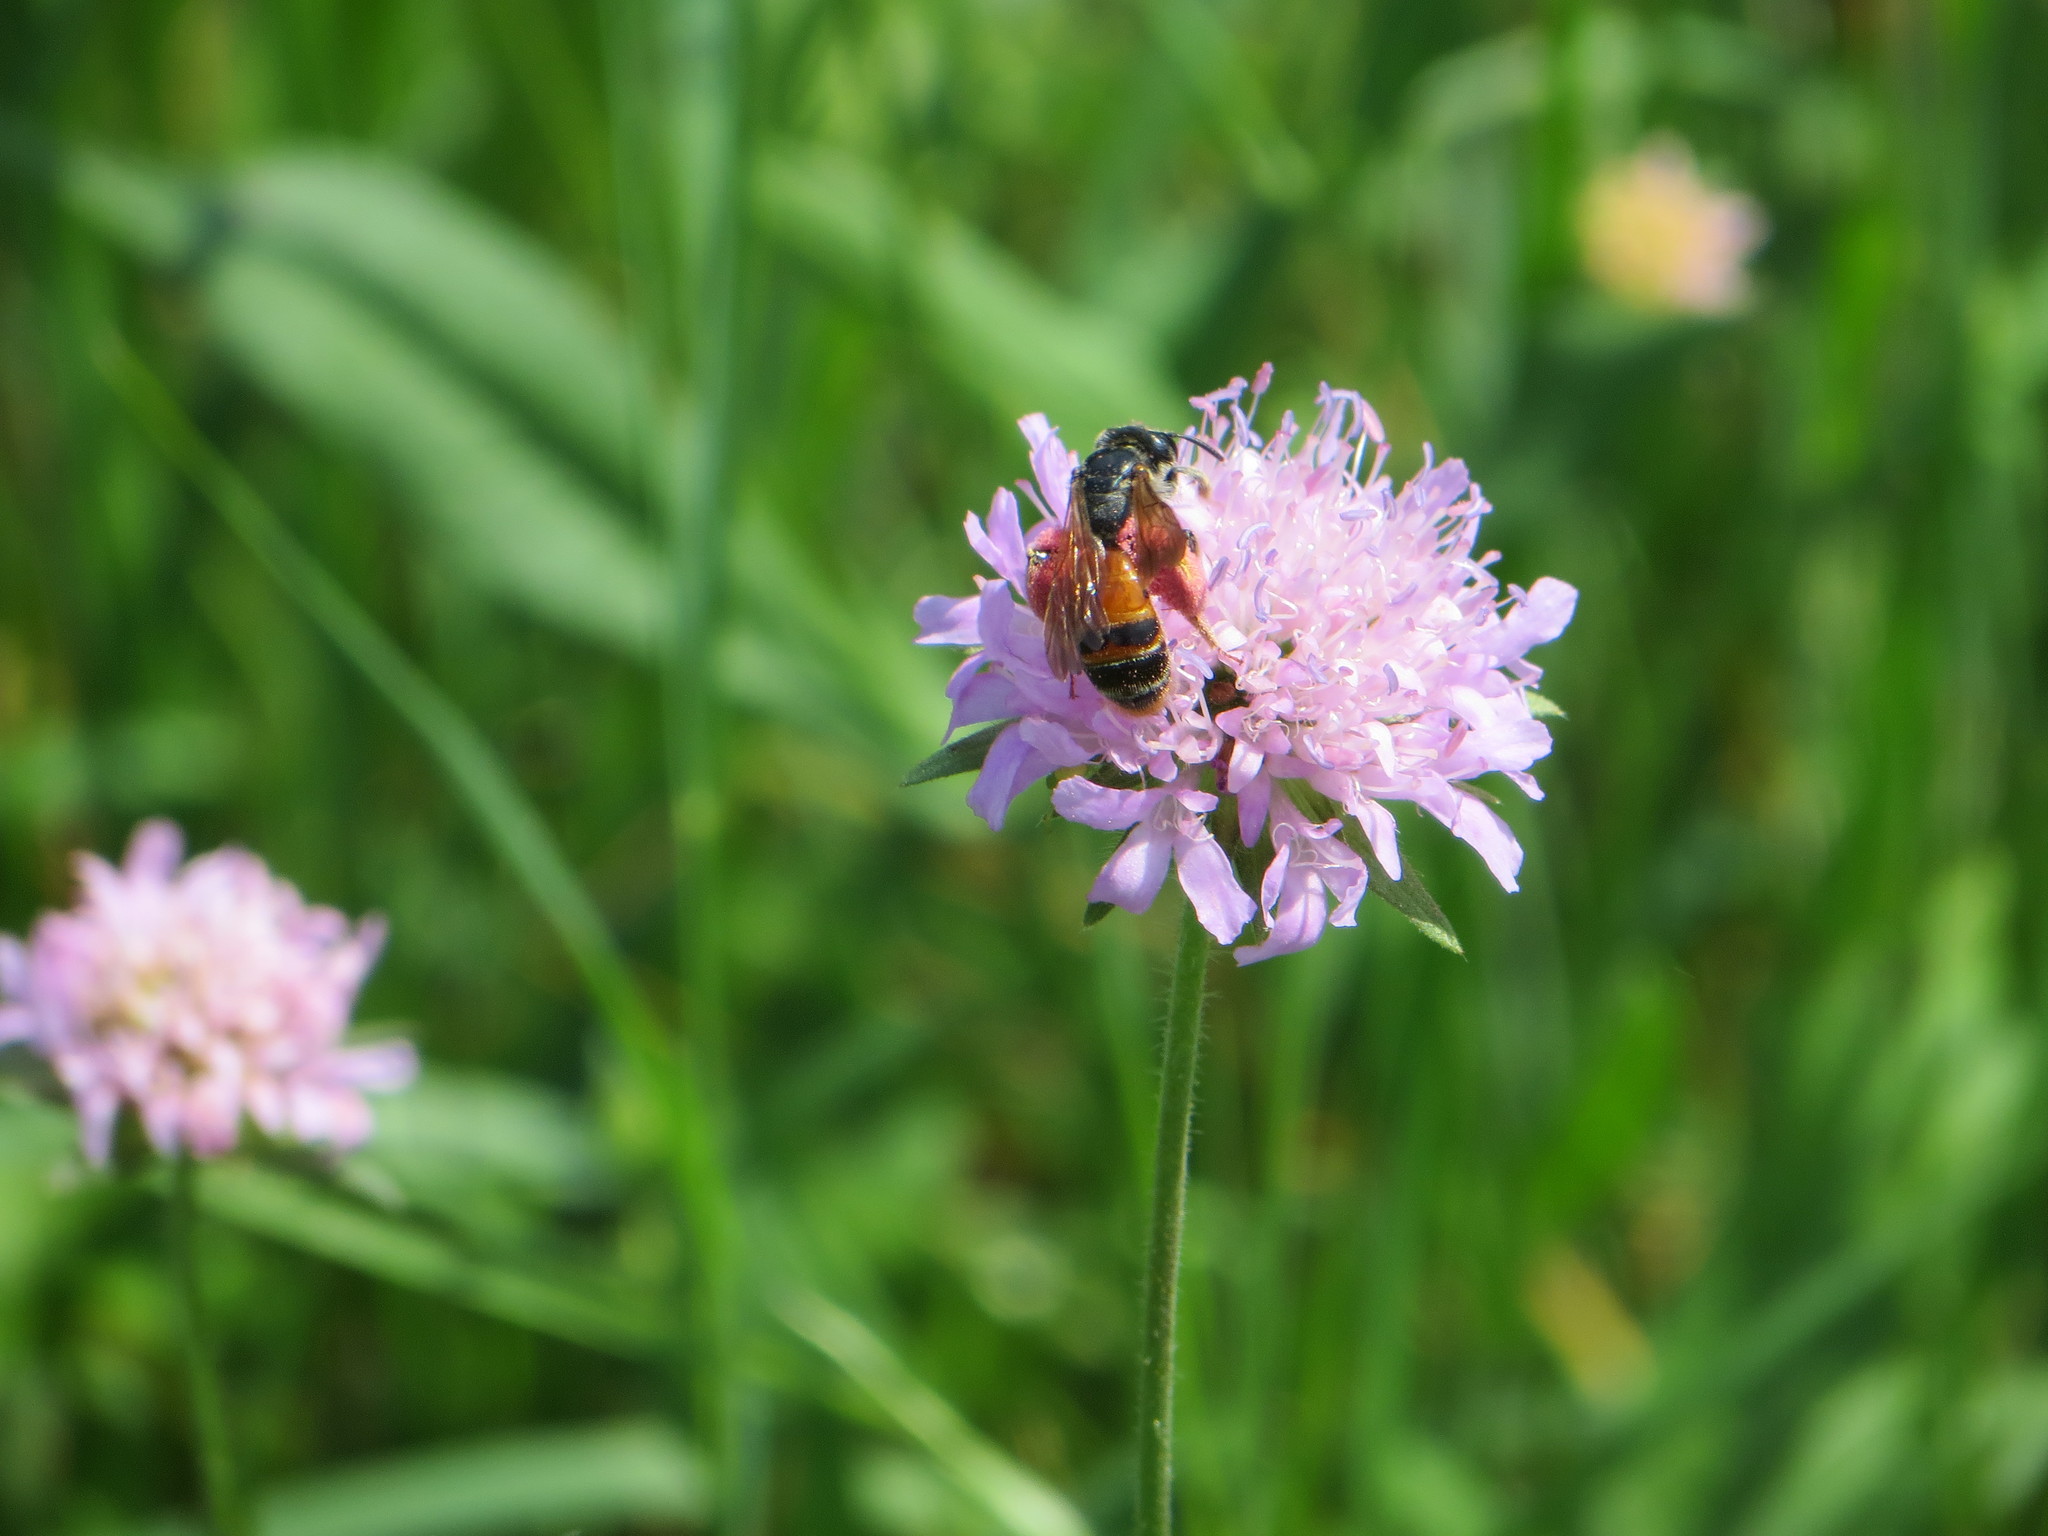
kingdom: Animalia
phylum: Arthropoda
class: Insecta
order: Hymenoptera
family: Andrenidae
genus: Andrena
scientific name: Andrena hattorfiana
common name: Large scabious mining bee
